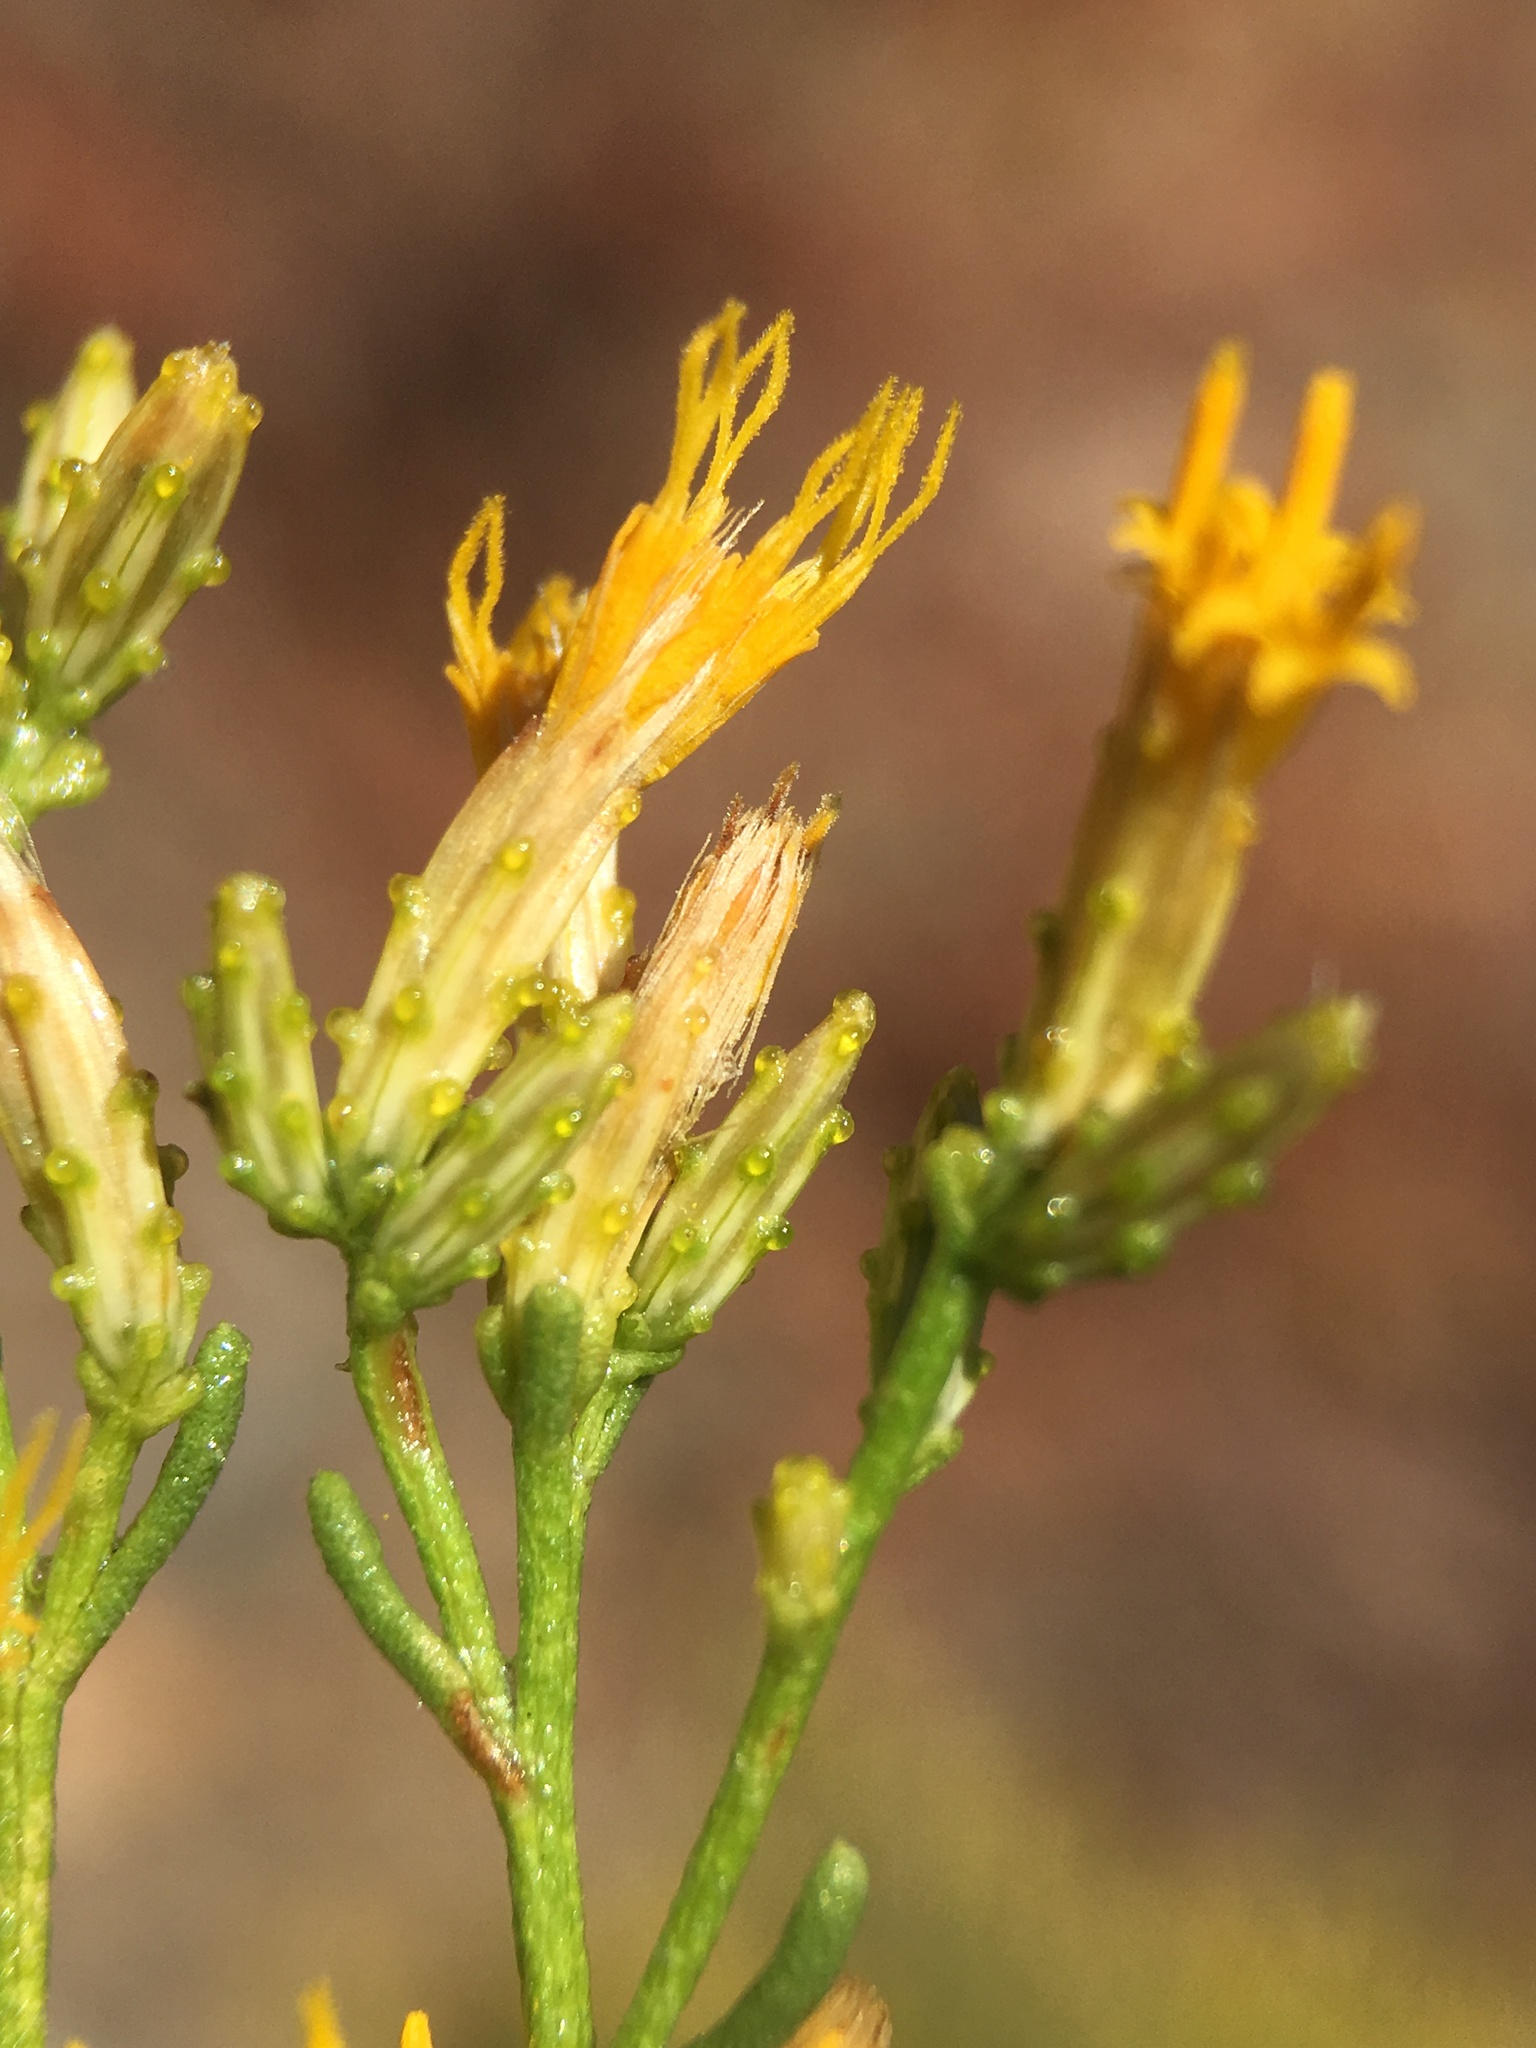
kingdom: Plantae
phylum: Tracheophyta
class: Magnoliopsida
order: Asterales
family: Asteraceae
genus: Ericameria
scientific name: Ericameria teretifolia
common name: Round-leaf rabbitbrush
